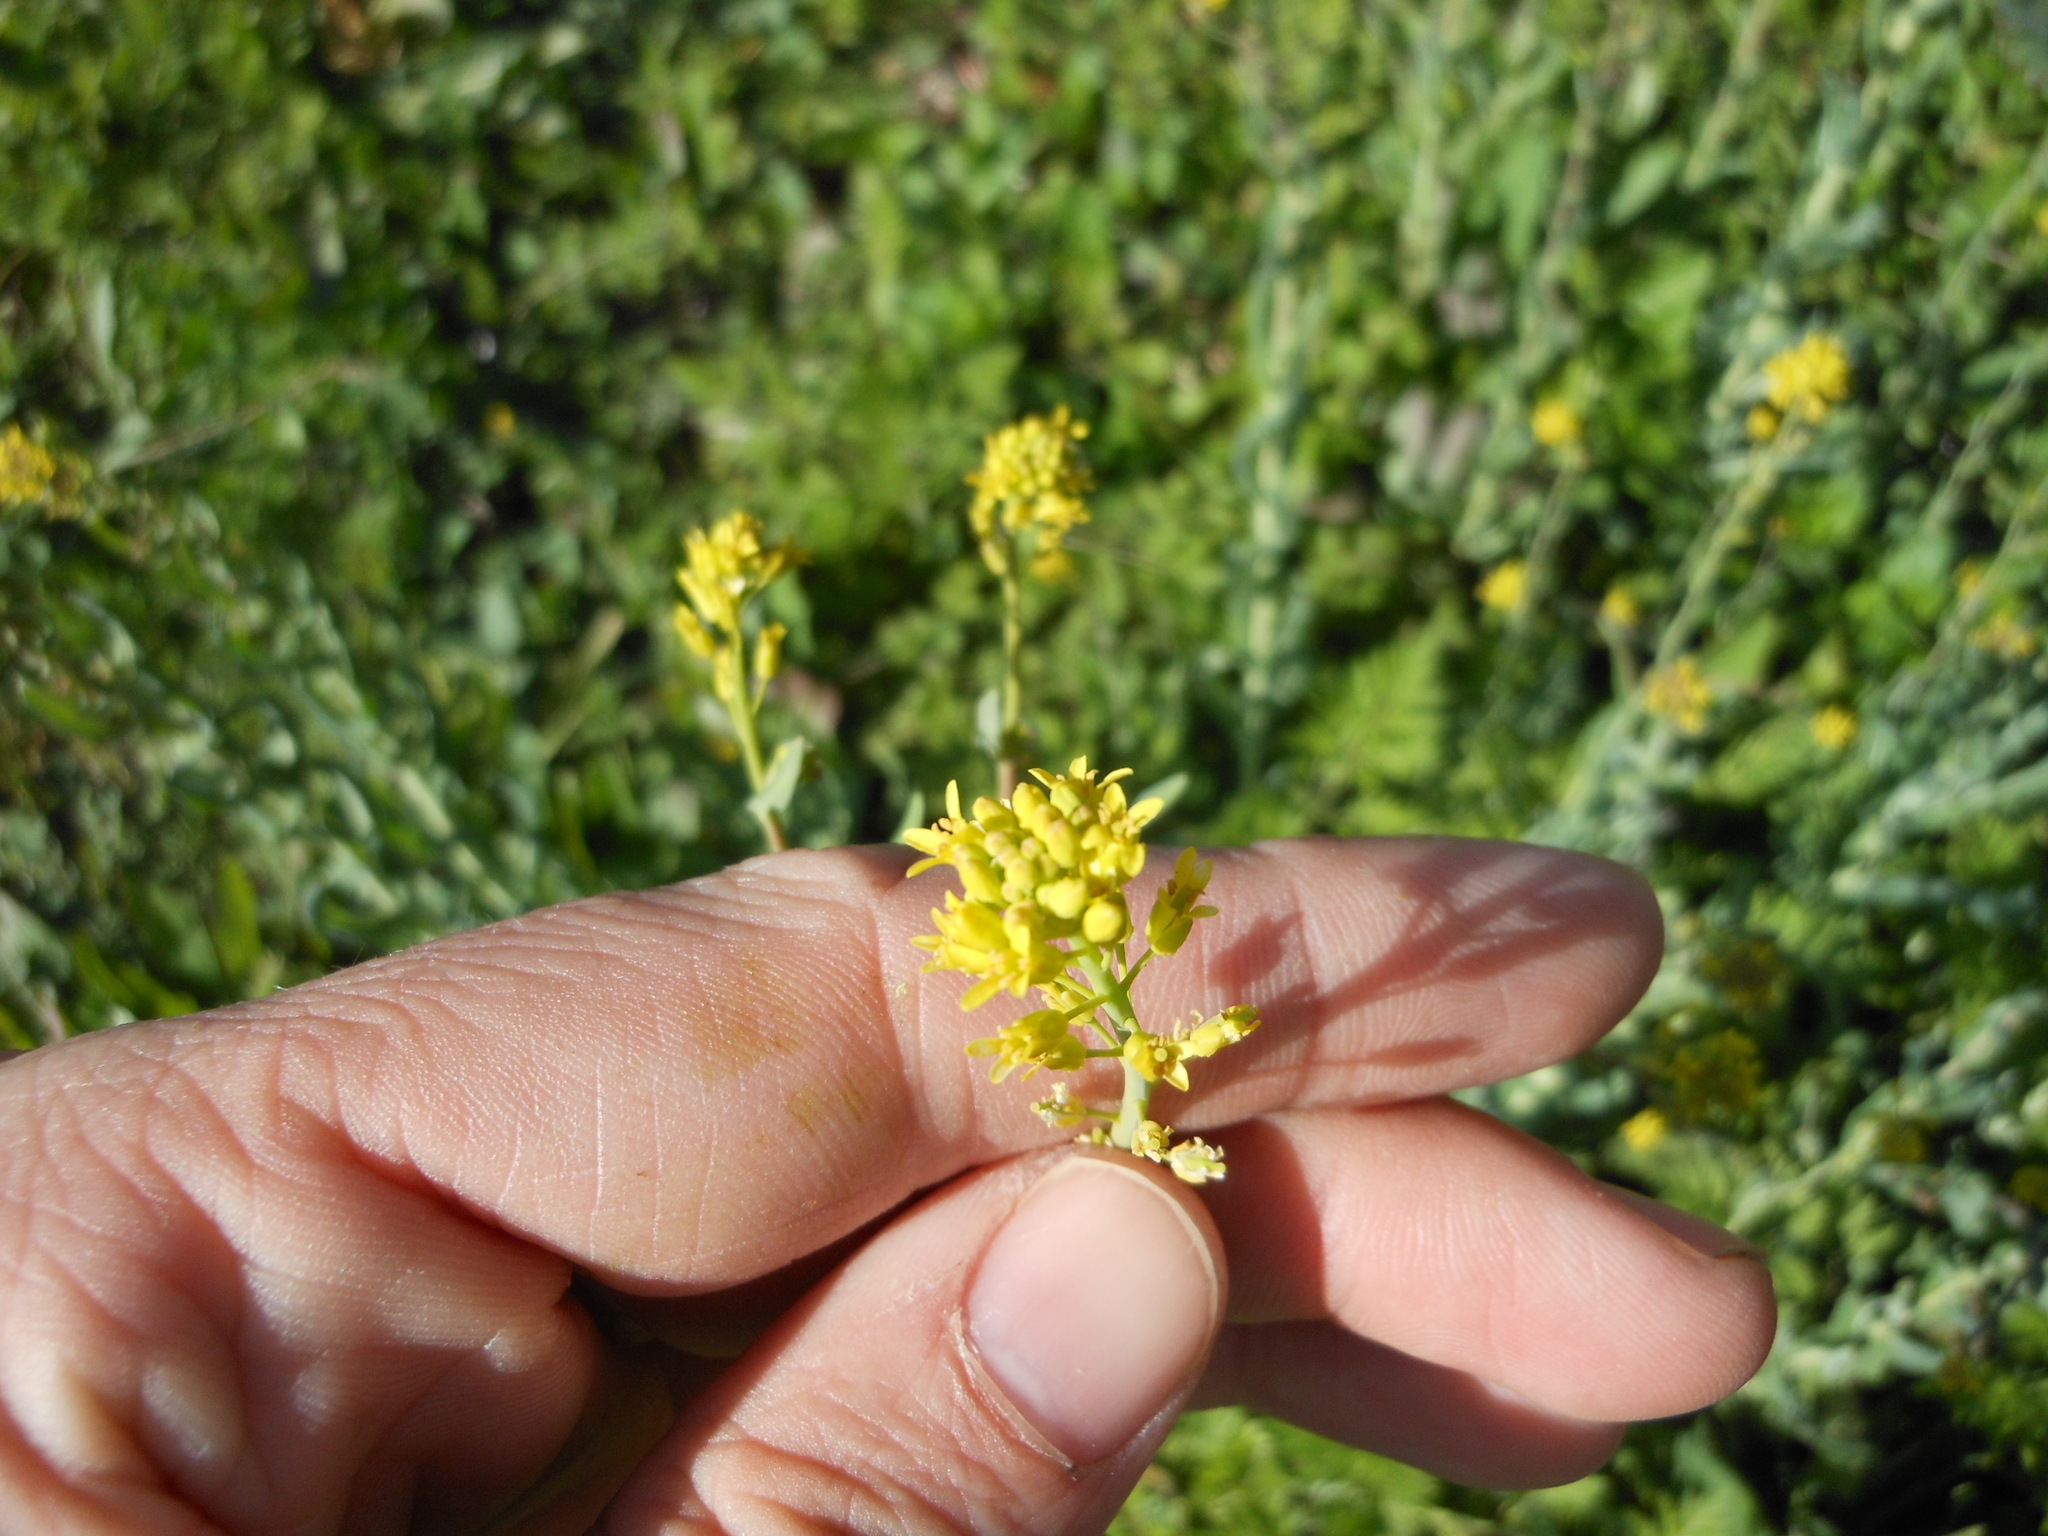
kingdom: Plantae
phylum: Tracheophyta
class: Magnoliopsida
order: Brassicales
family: Brassicaceae
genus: Rapistrum
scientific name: Rapistrum rugosum
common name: Annual bastardcabbage
